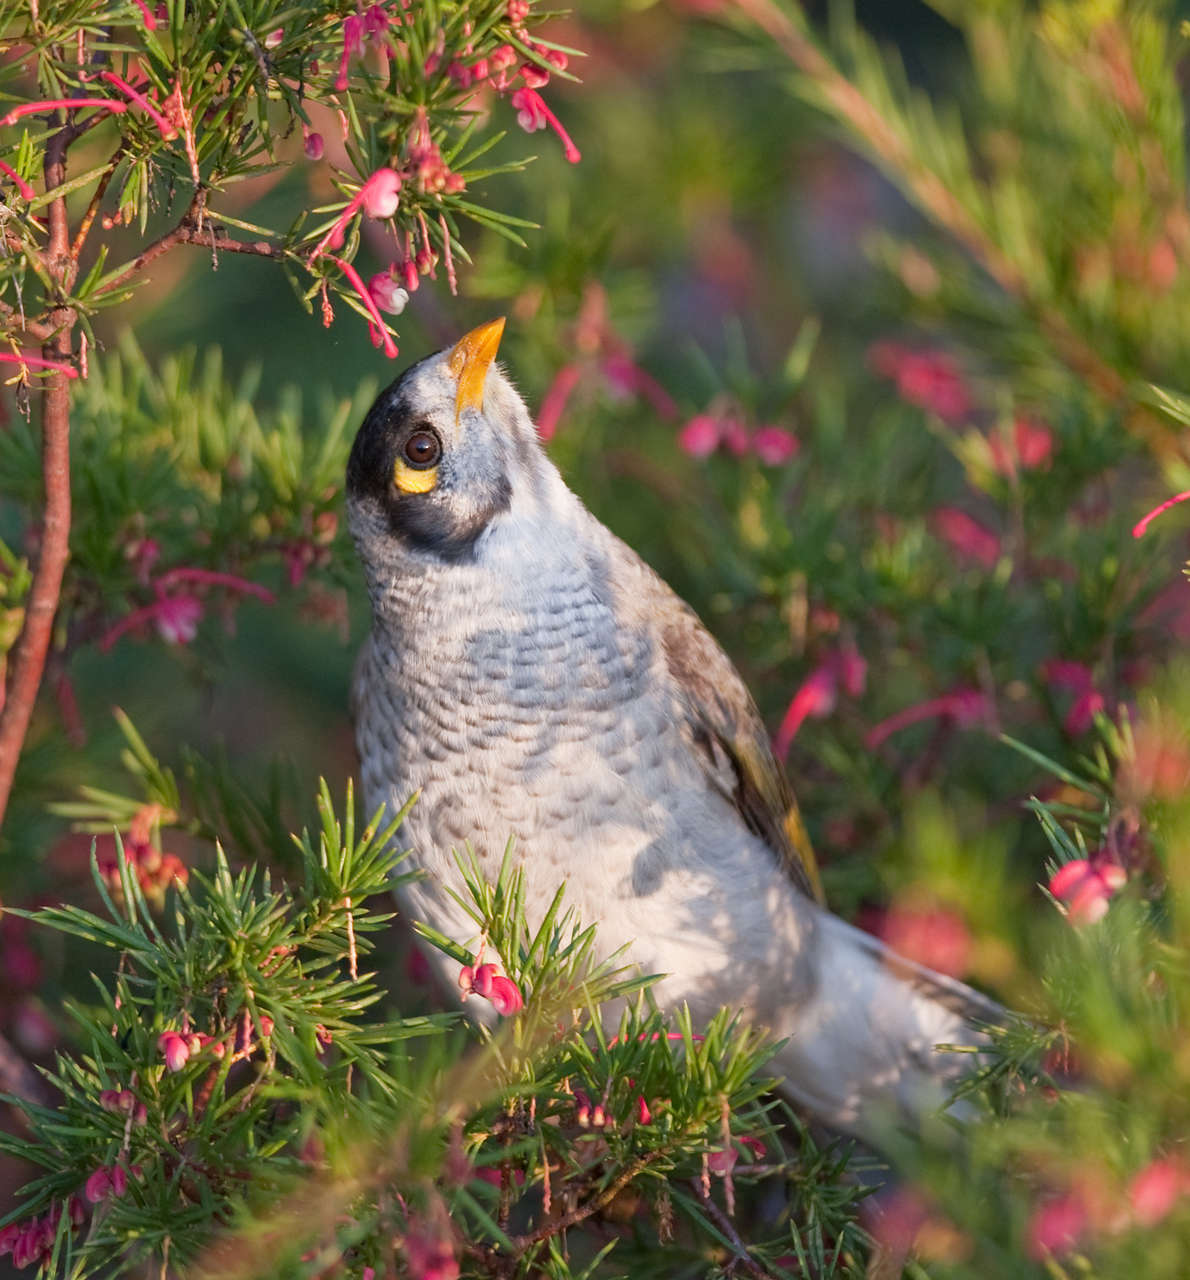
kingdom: Animalia
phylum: Chordata
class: Aves
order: Passeriformes
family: Meliphagidae
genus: Manorina
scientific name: Manorina melanocephala
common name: Noisy miner
